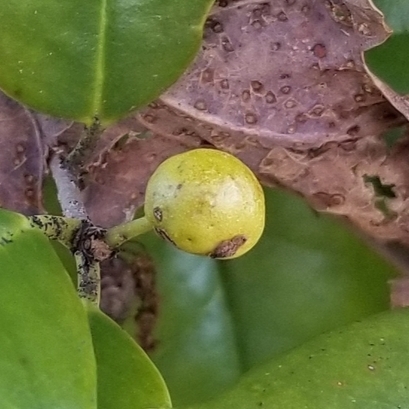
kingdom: Animalia
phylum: Arthropoda
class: Insecta
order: Diptera
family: Cecidomyiidae
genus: Asphondylia
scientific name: Asphondylia ilicicola
